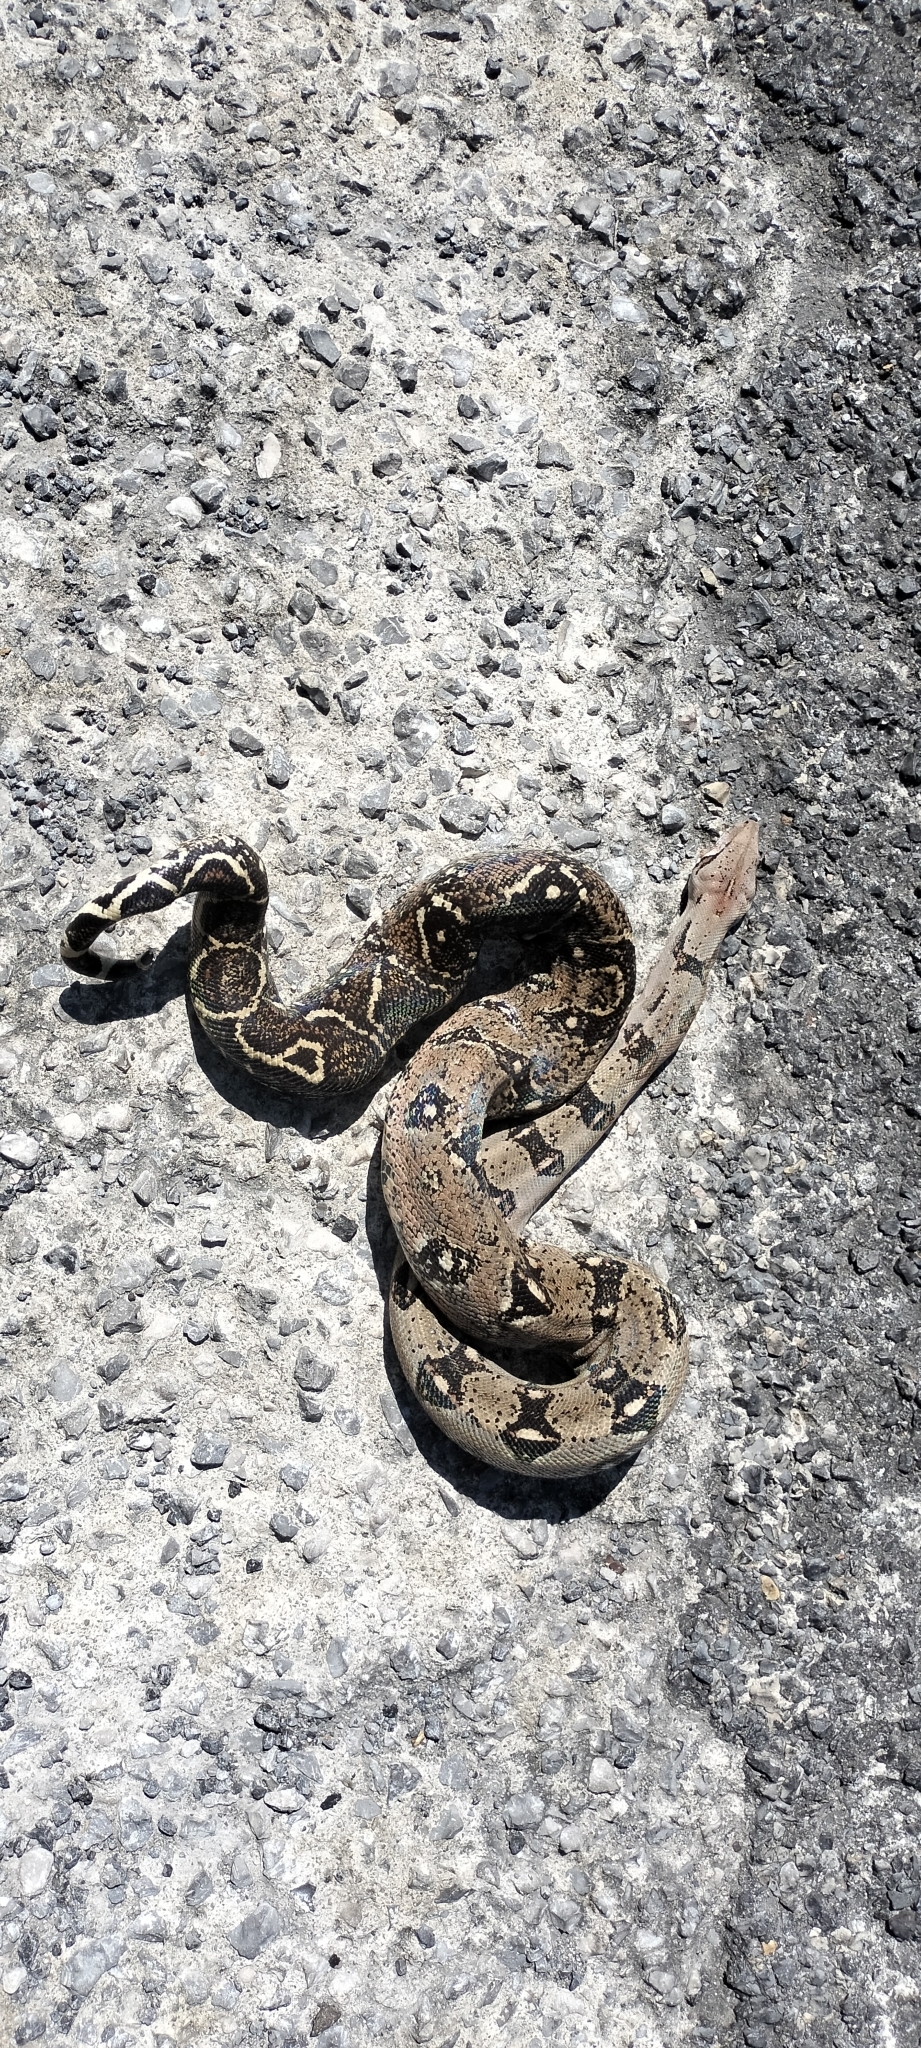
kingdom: Animalia
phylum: Chordata
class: Squamata
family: Boidae
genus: Boa
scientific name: Boa imperator
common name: Central american boa
